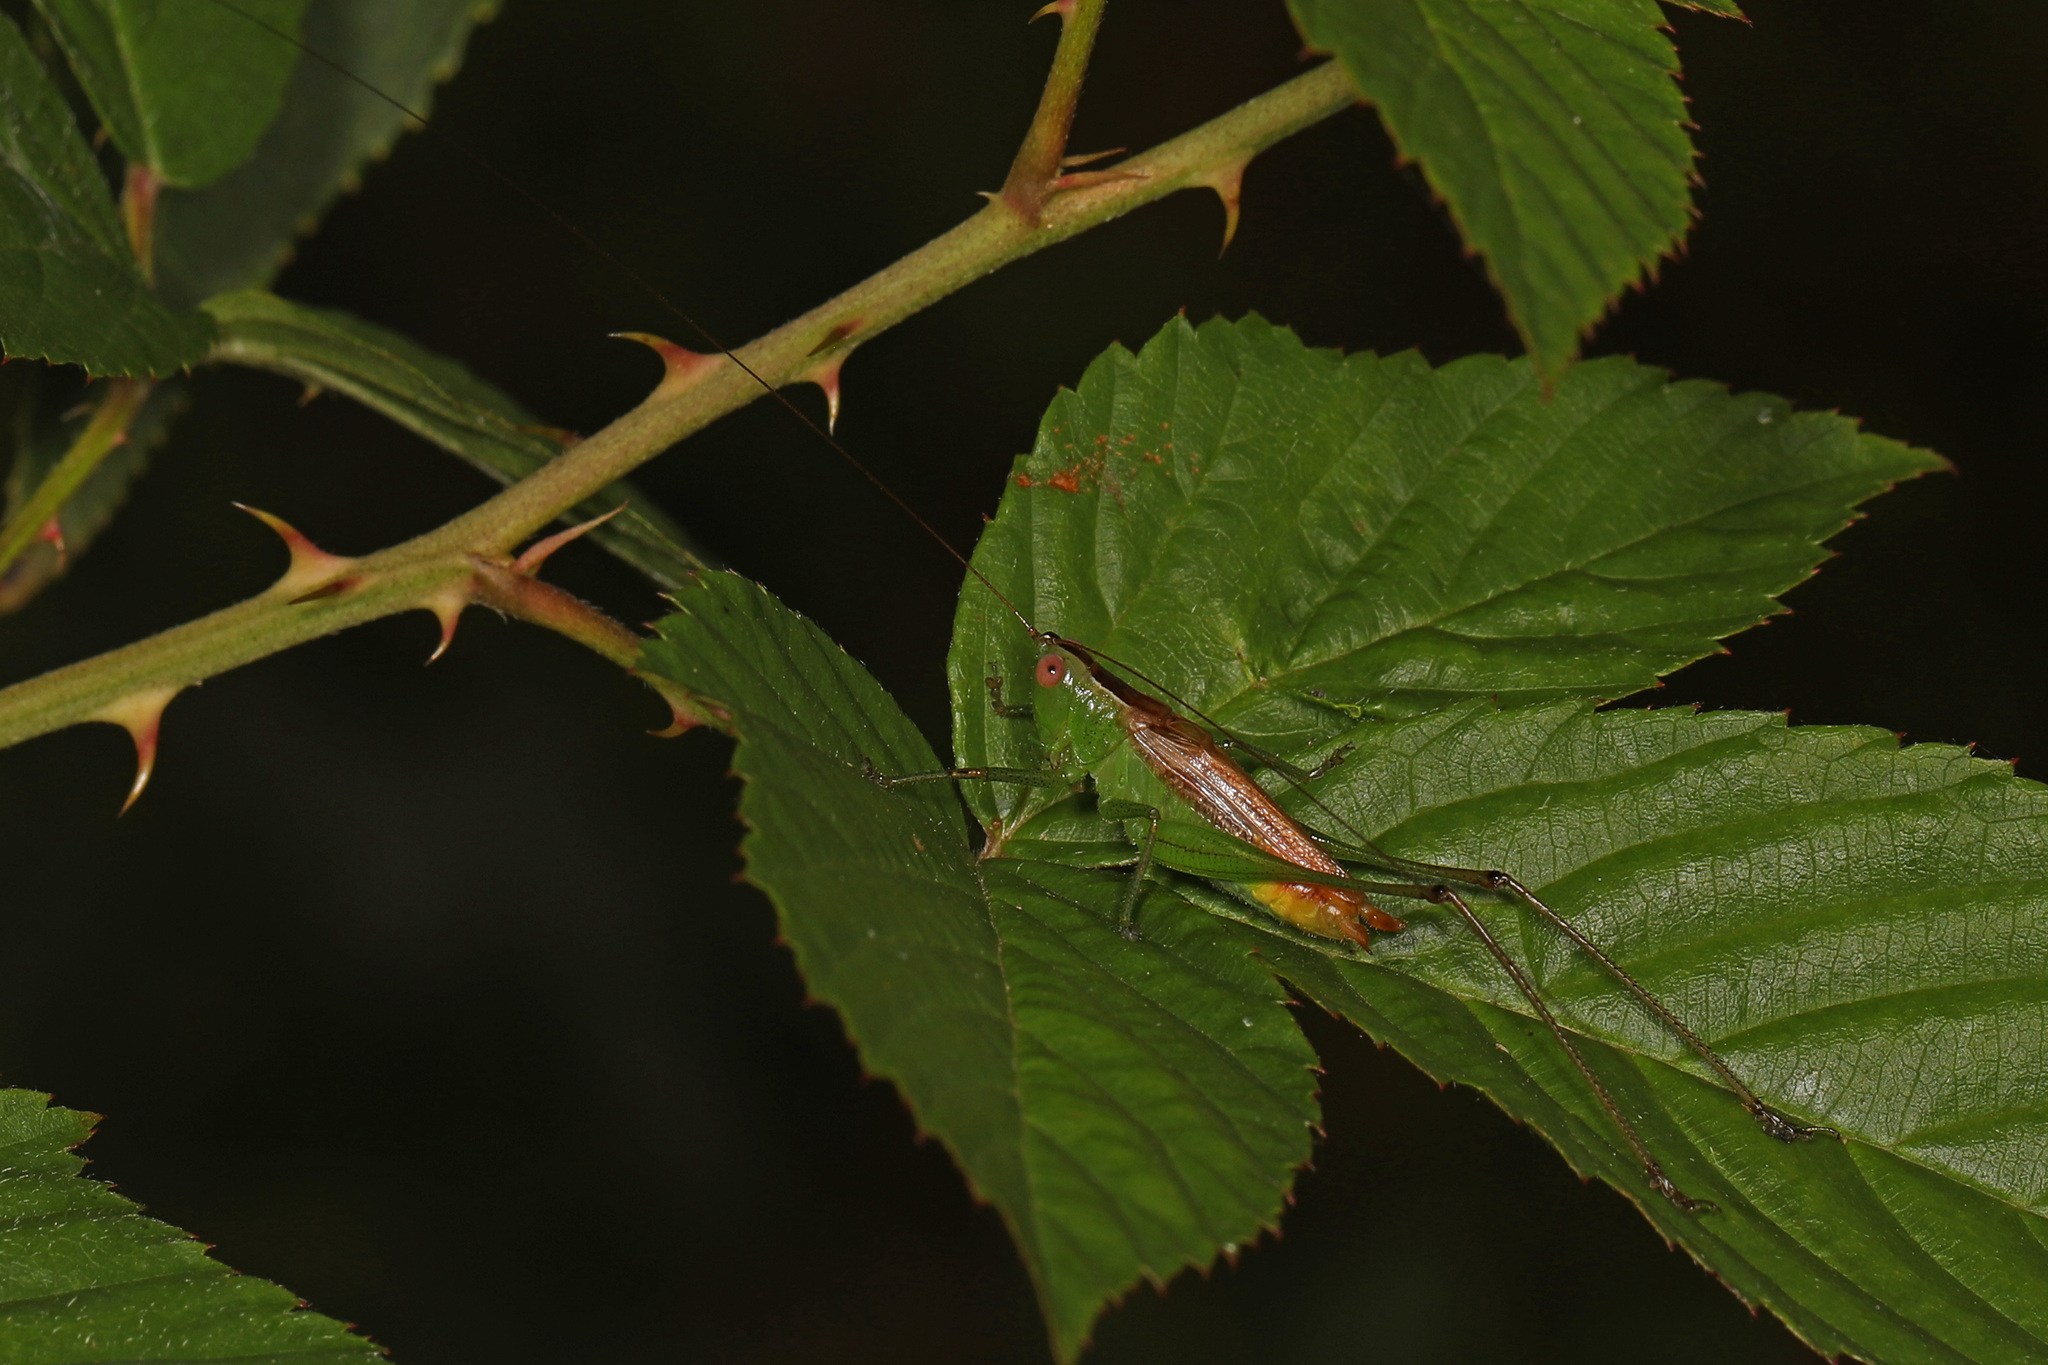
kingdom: Animalia
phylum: Arthropoda
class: Insecta
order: Orthoptera
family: Tettigoniidae
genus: Conocephalus
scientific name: Conocephalus brevipennis
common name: Short-winged meadow katydid
